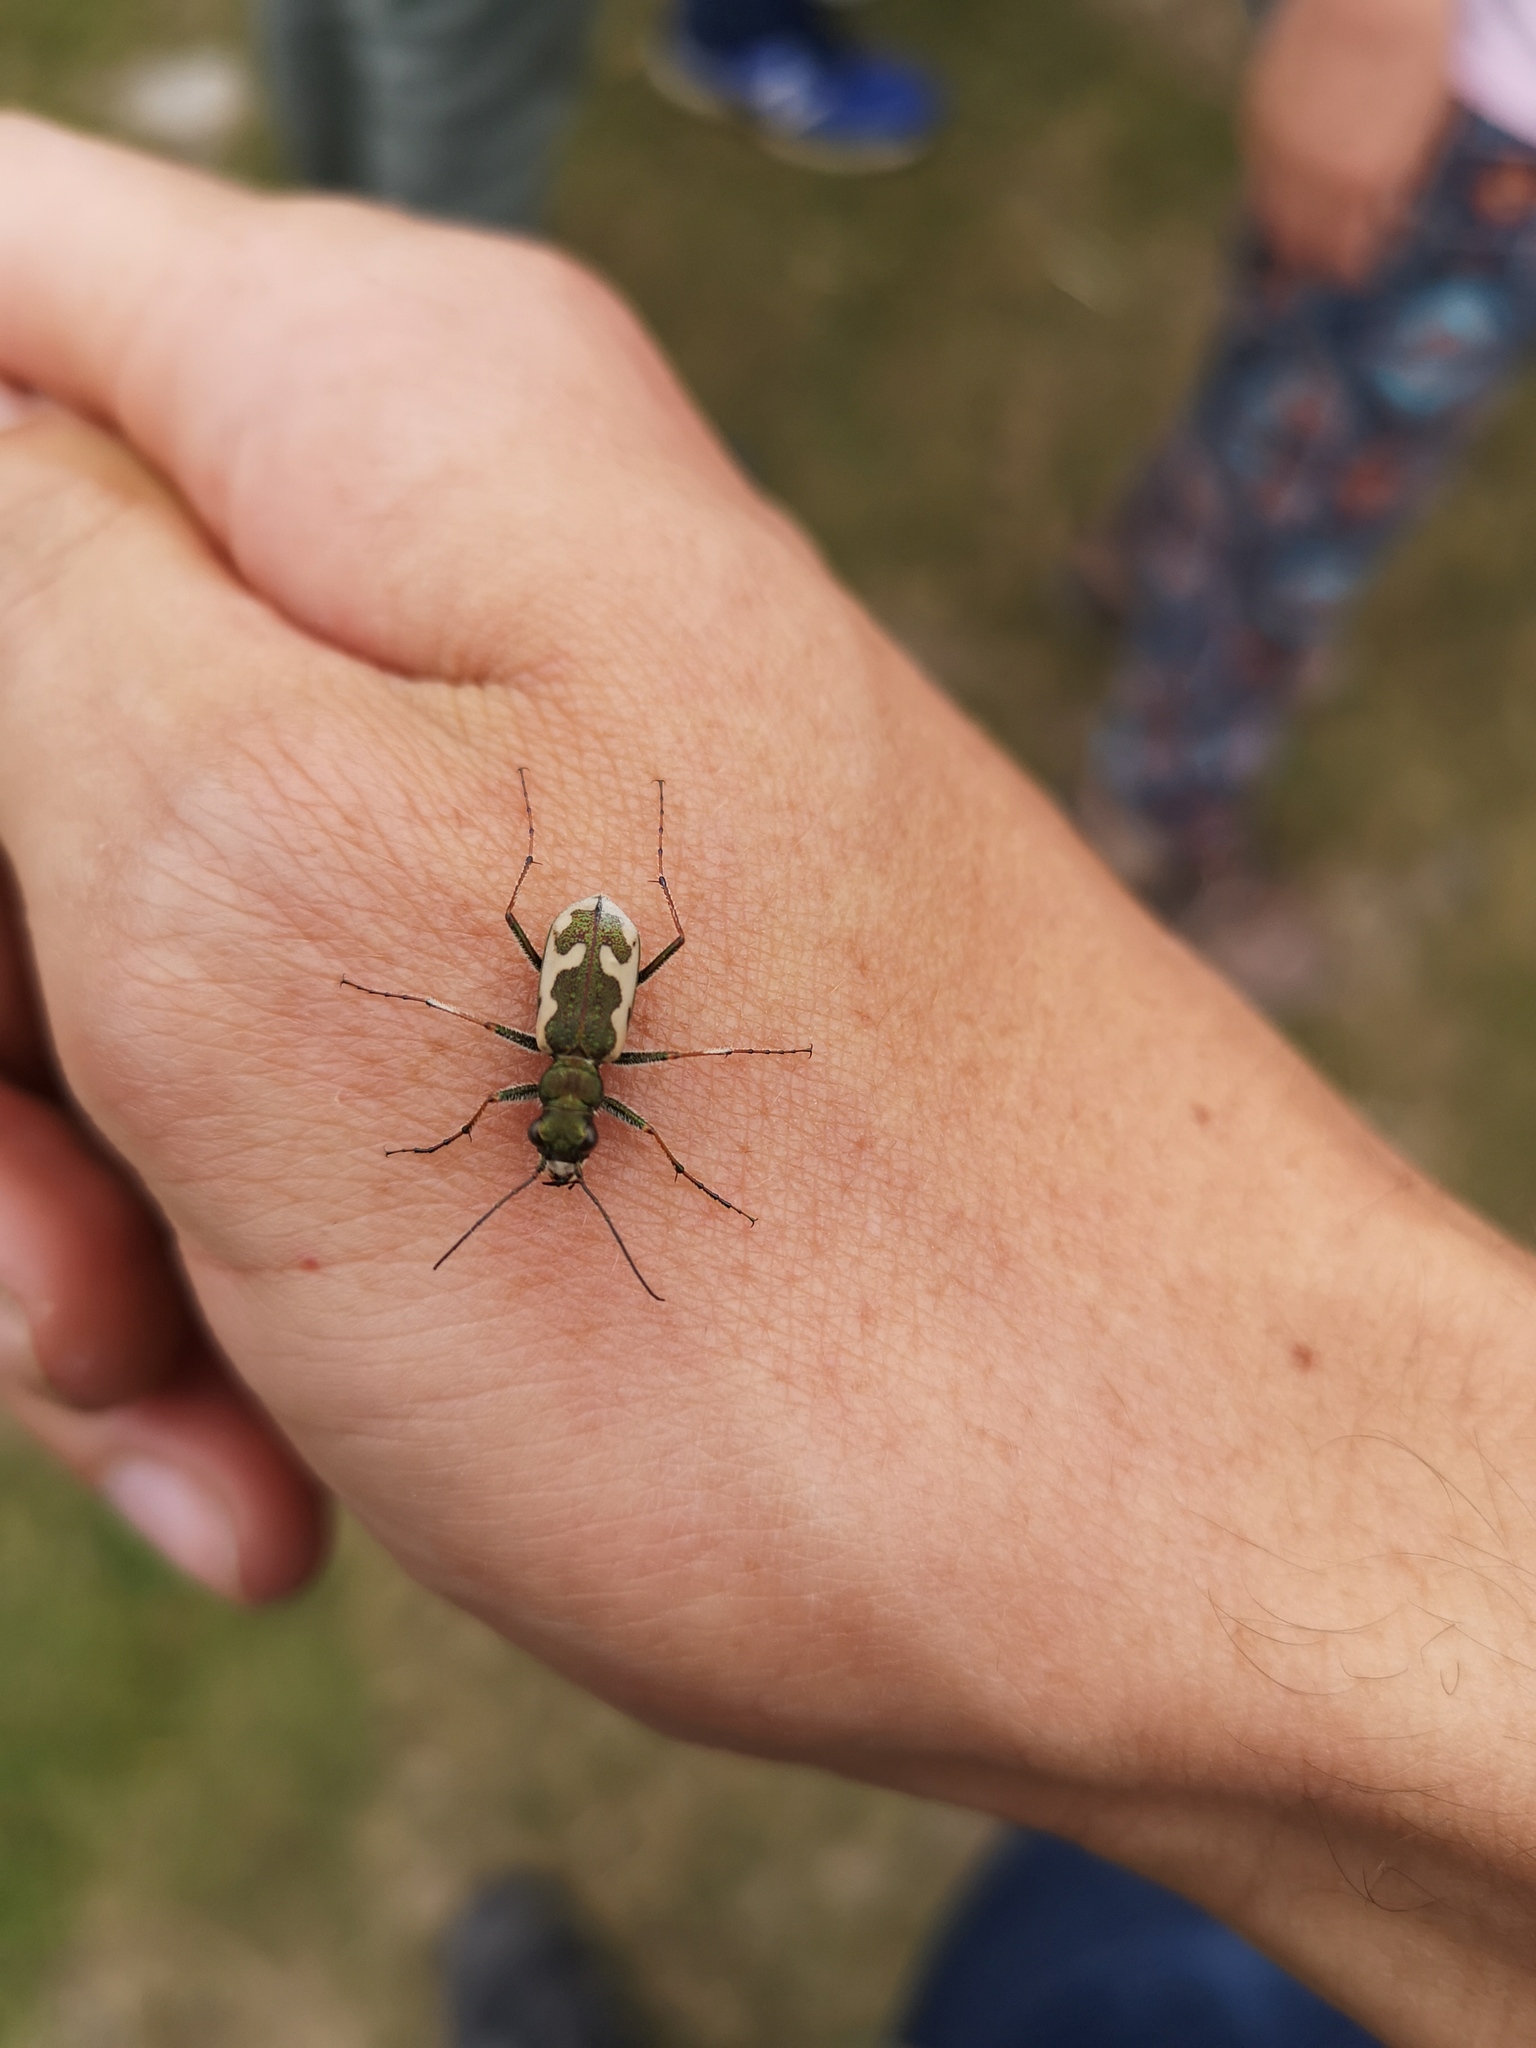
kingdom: Animalia
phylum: Arthropoda
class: Insecta
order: Coleoptera
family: Carabidae
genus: Neocicindela
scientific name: Neocicindela latecincta
